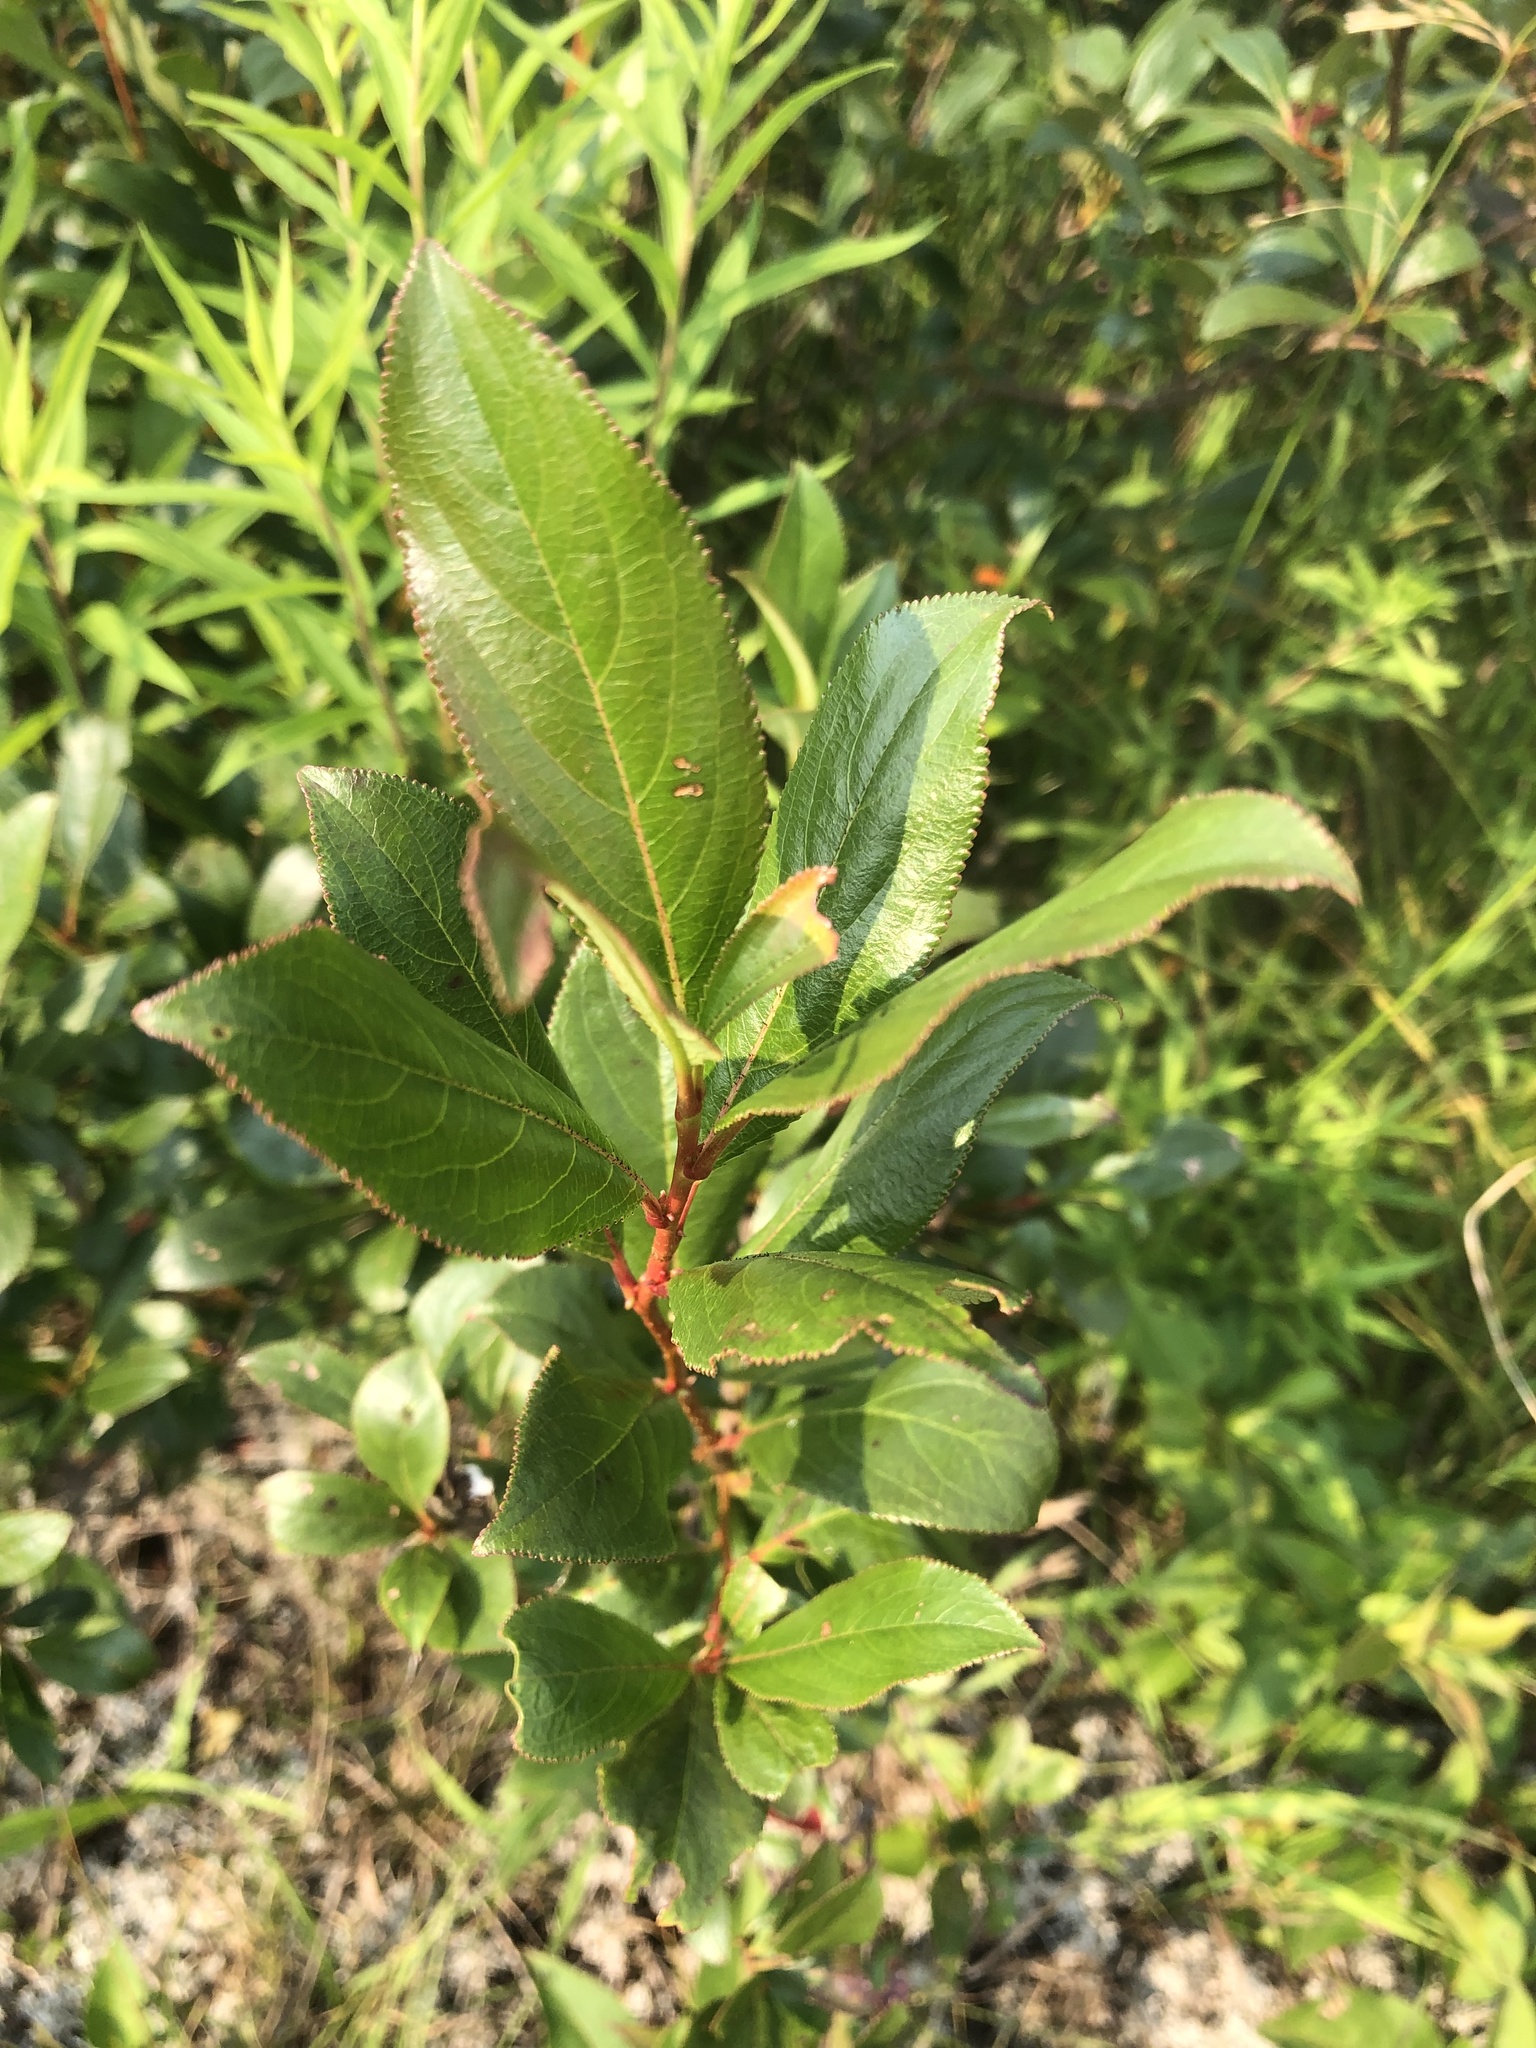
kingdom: Plantae
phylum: Tracheophyta
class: Magnoliopsida
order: Rosales
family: Rosaceae
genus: Aronia
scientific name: Aronia melanocarpa
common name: Black chokeberry
